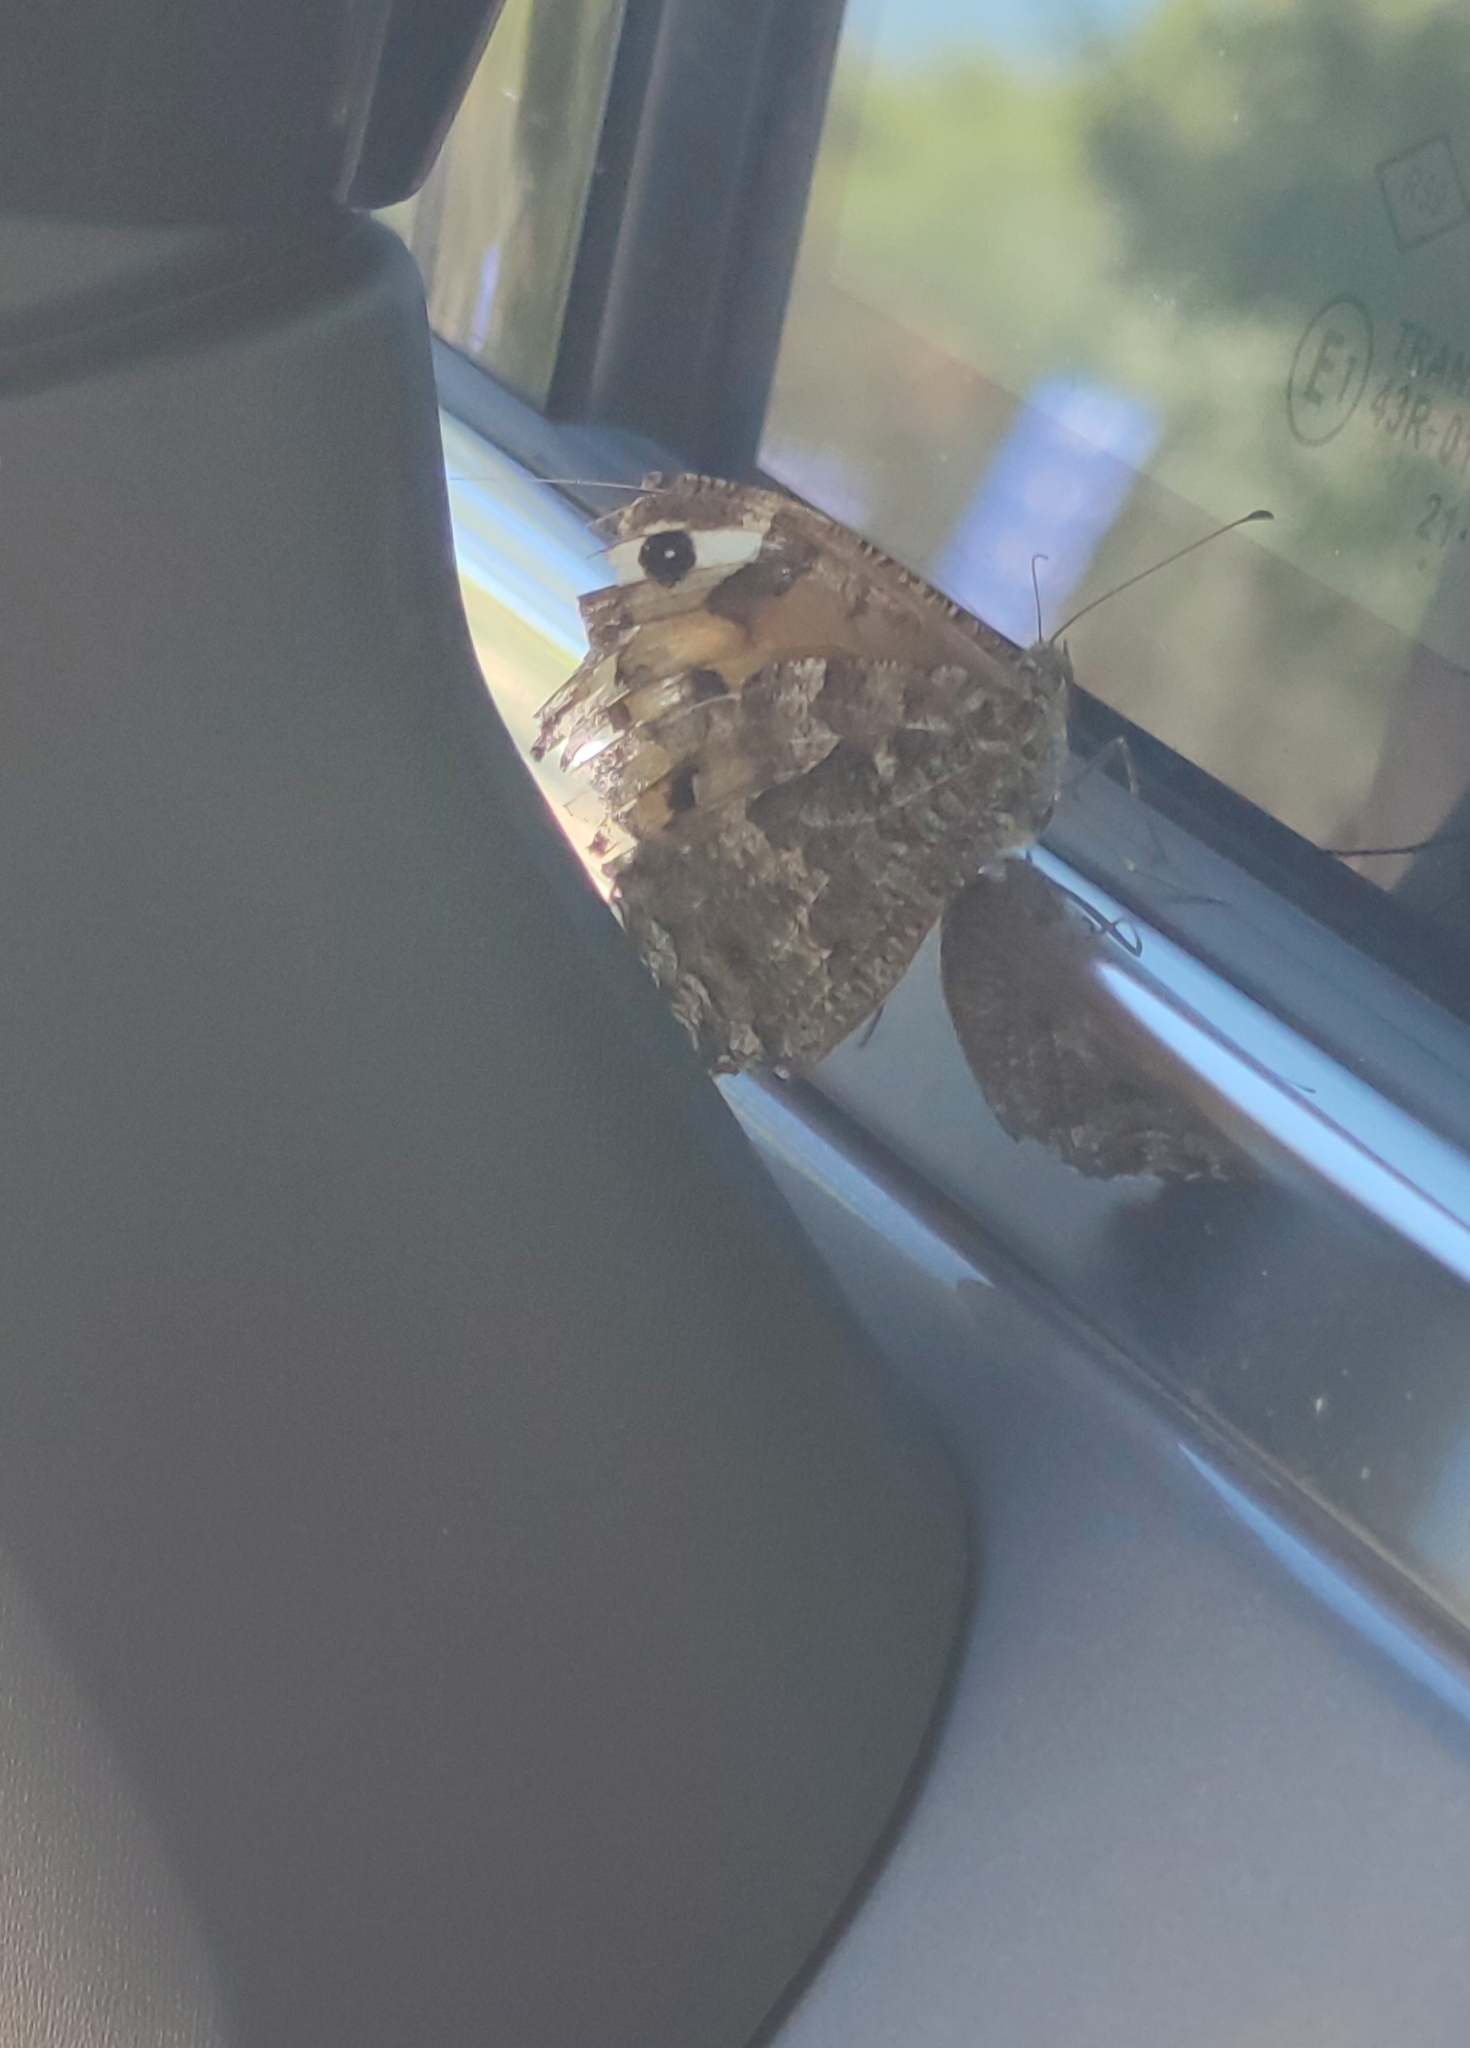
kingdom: Animalia
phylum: Arthropoda
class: Insecta
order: Lepidoptera
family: Nymphalidae
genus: Hipparchia
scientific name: Hipparchia semele
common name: Grayling
